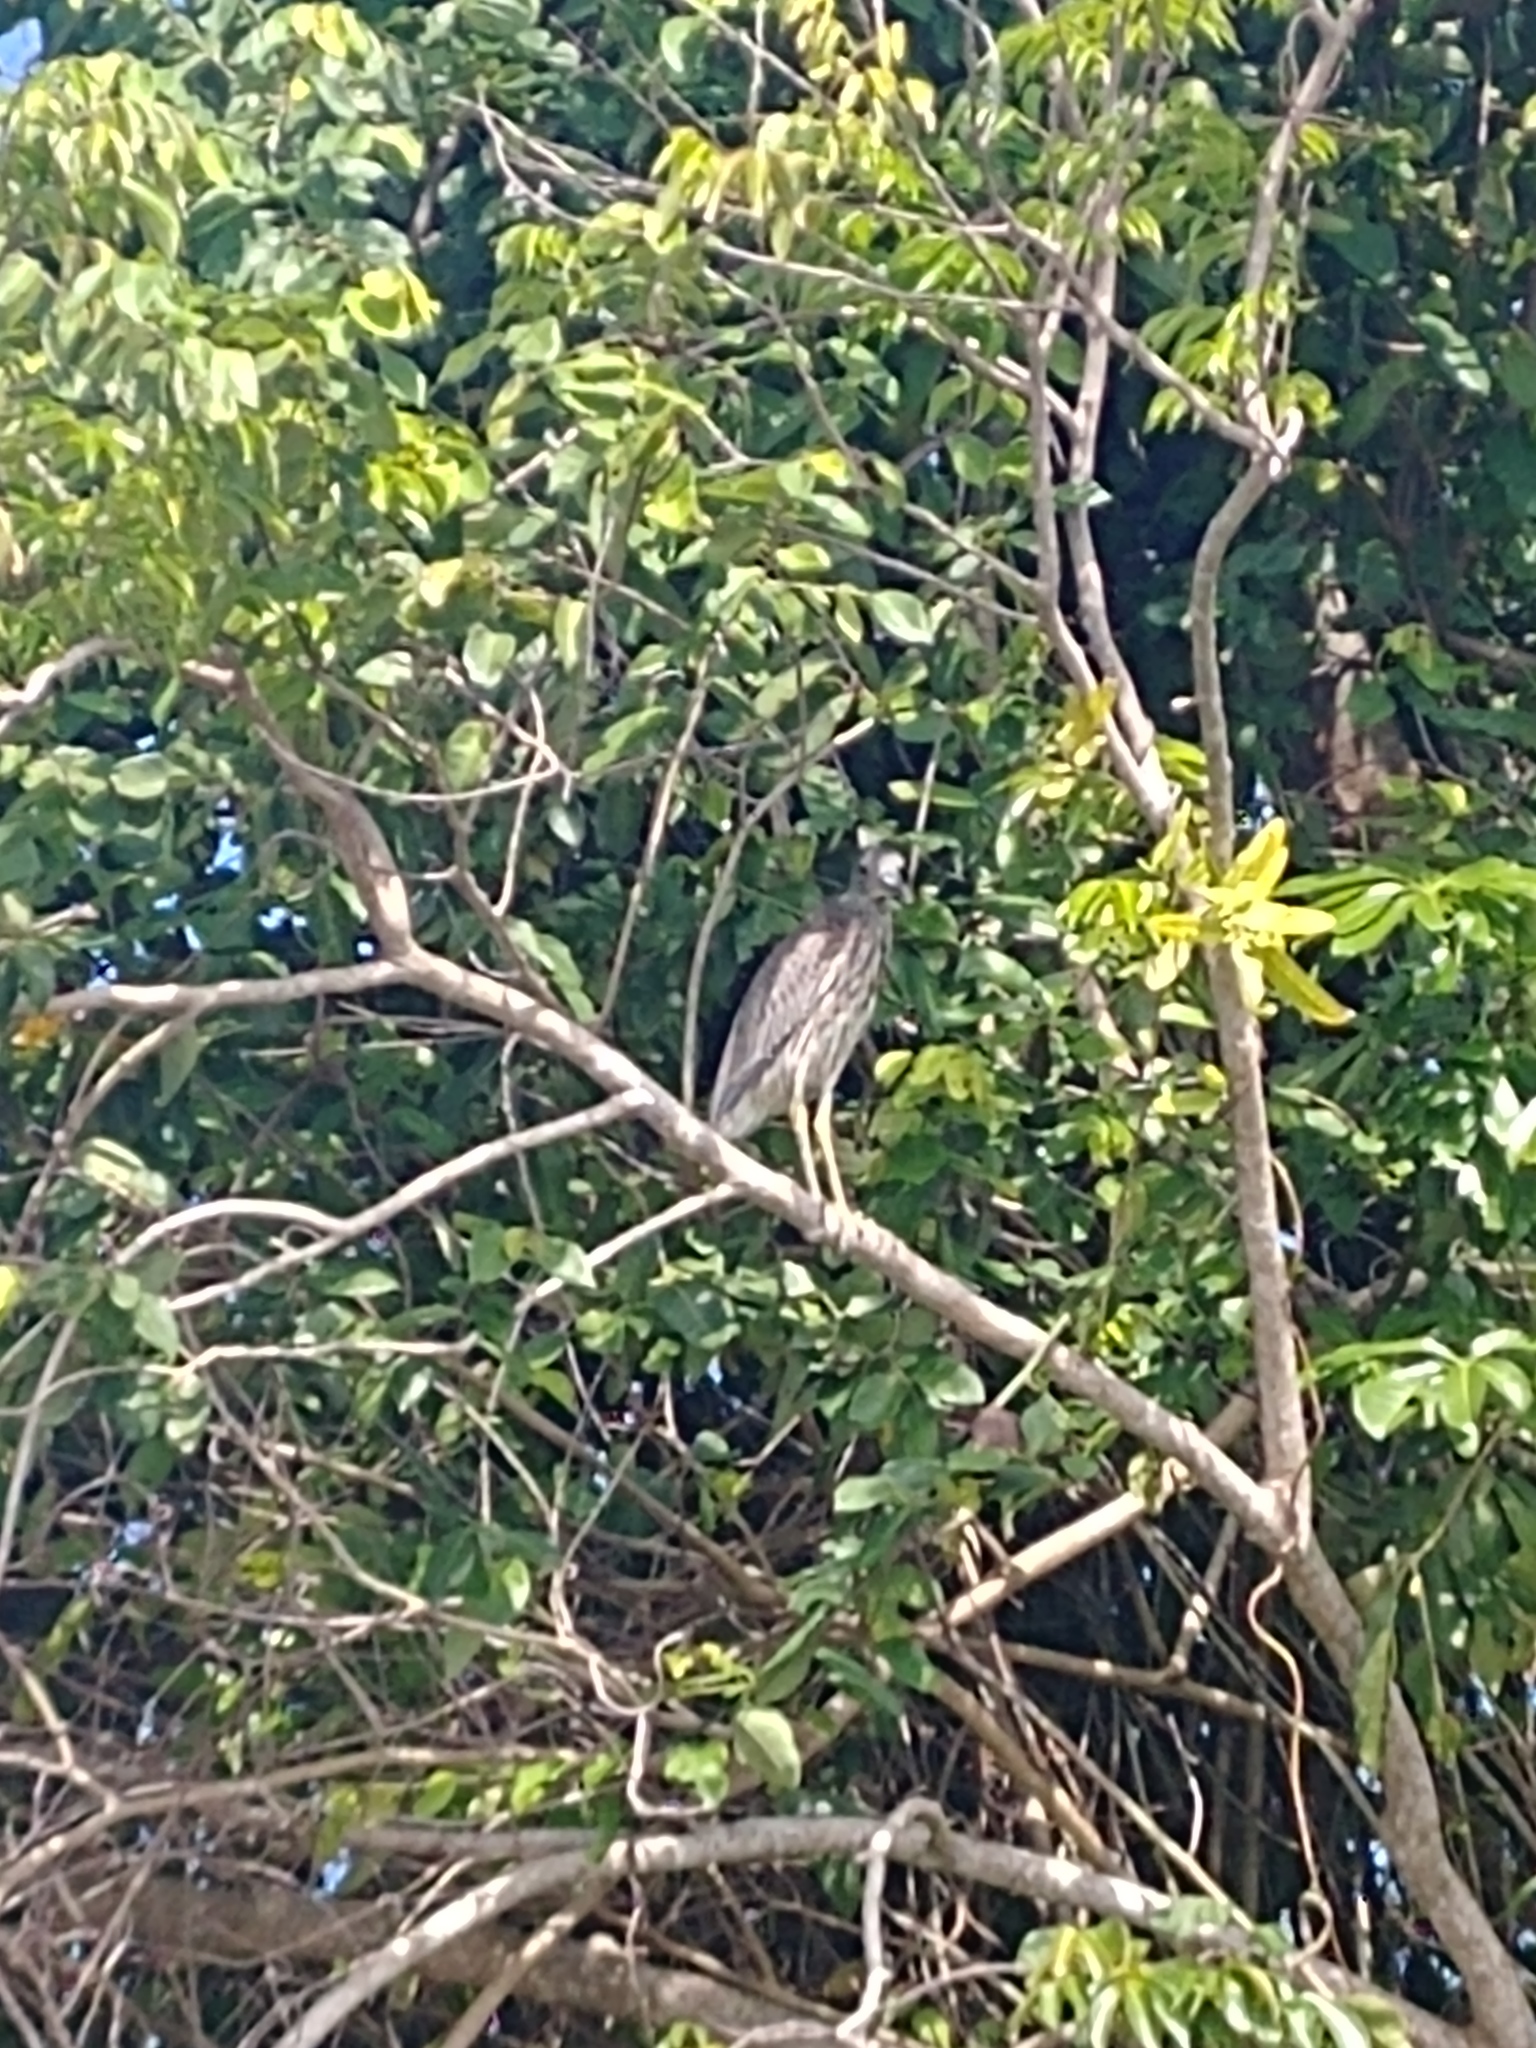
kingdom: Animalia
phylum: Chordata
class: Aves
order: Pelecaniformes
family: Ardeidae
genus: Nyctanassa
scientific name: Nyctanassa violacea
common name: Yellow-crowned night heron
